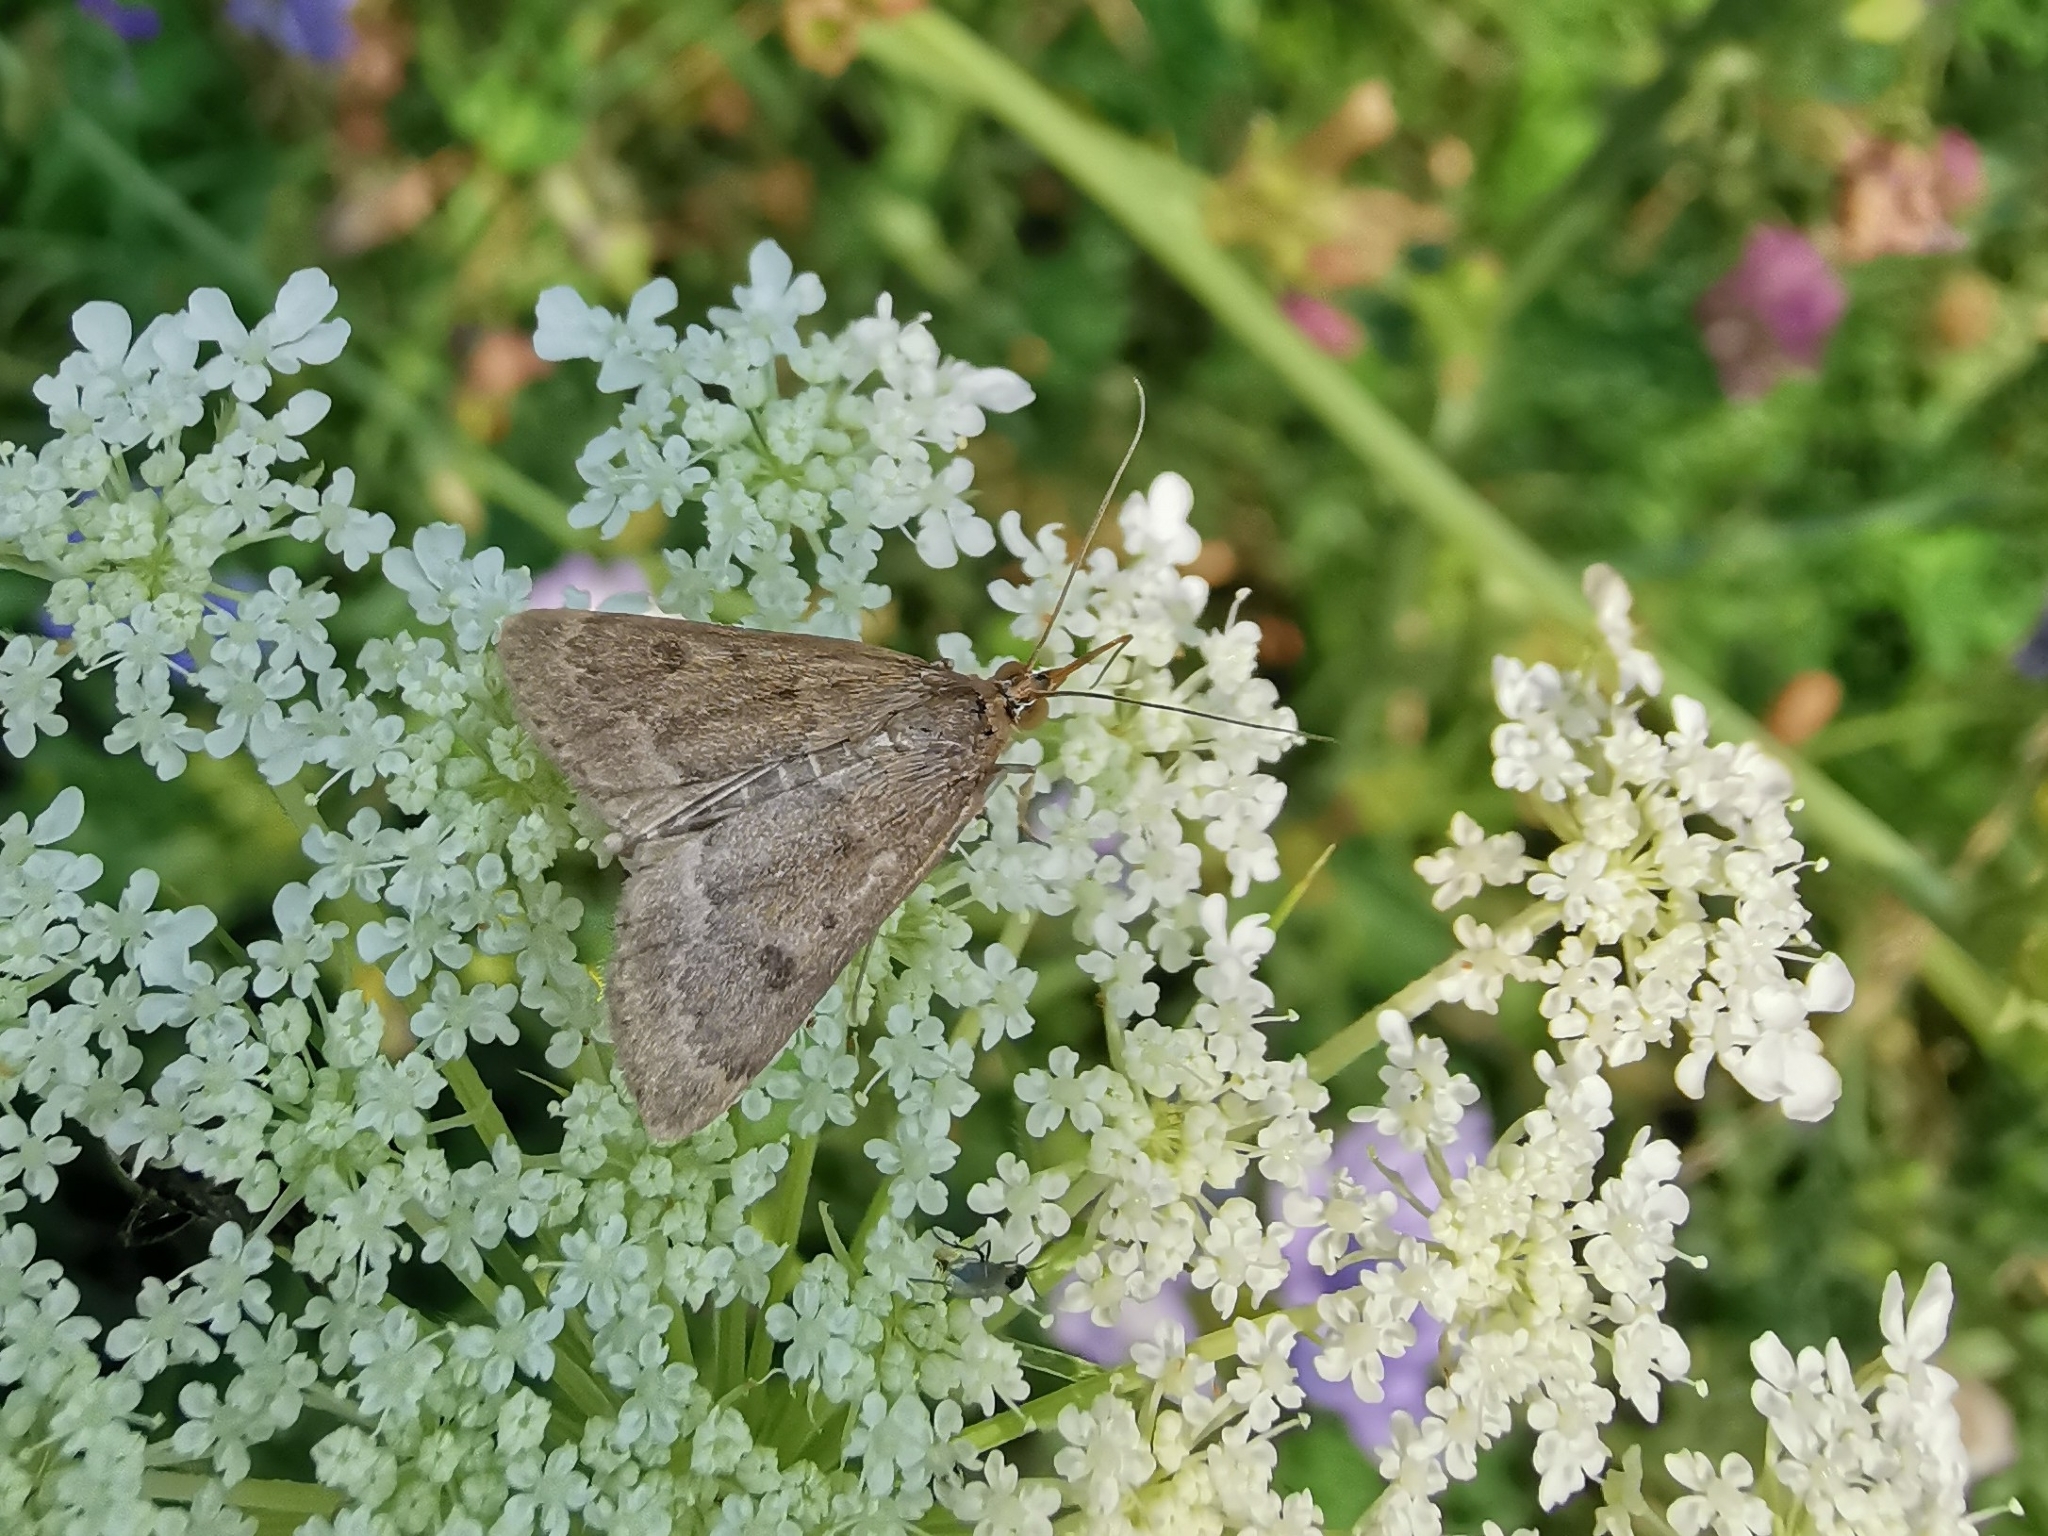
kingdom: Animalia
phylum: Arthropoda
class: Insecta
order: Lepidoptera
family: Crambidae
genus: Achyra
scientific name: Achyra rantalis
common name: Garden webworm
